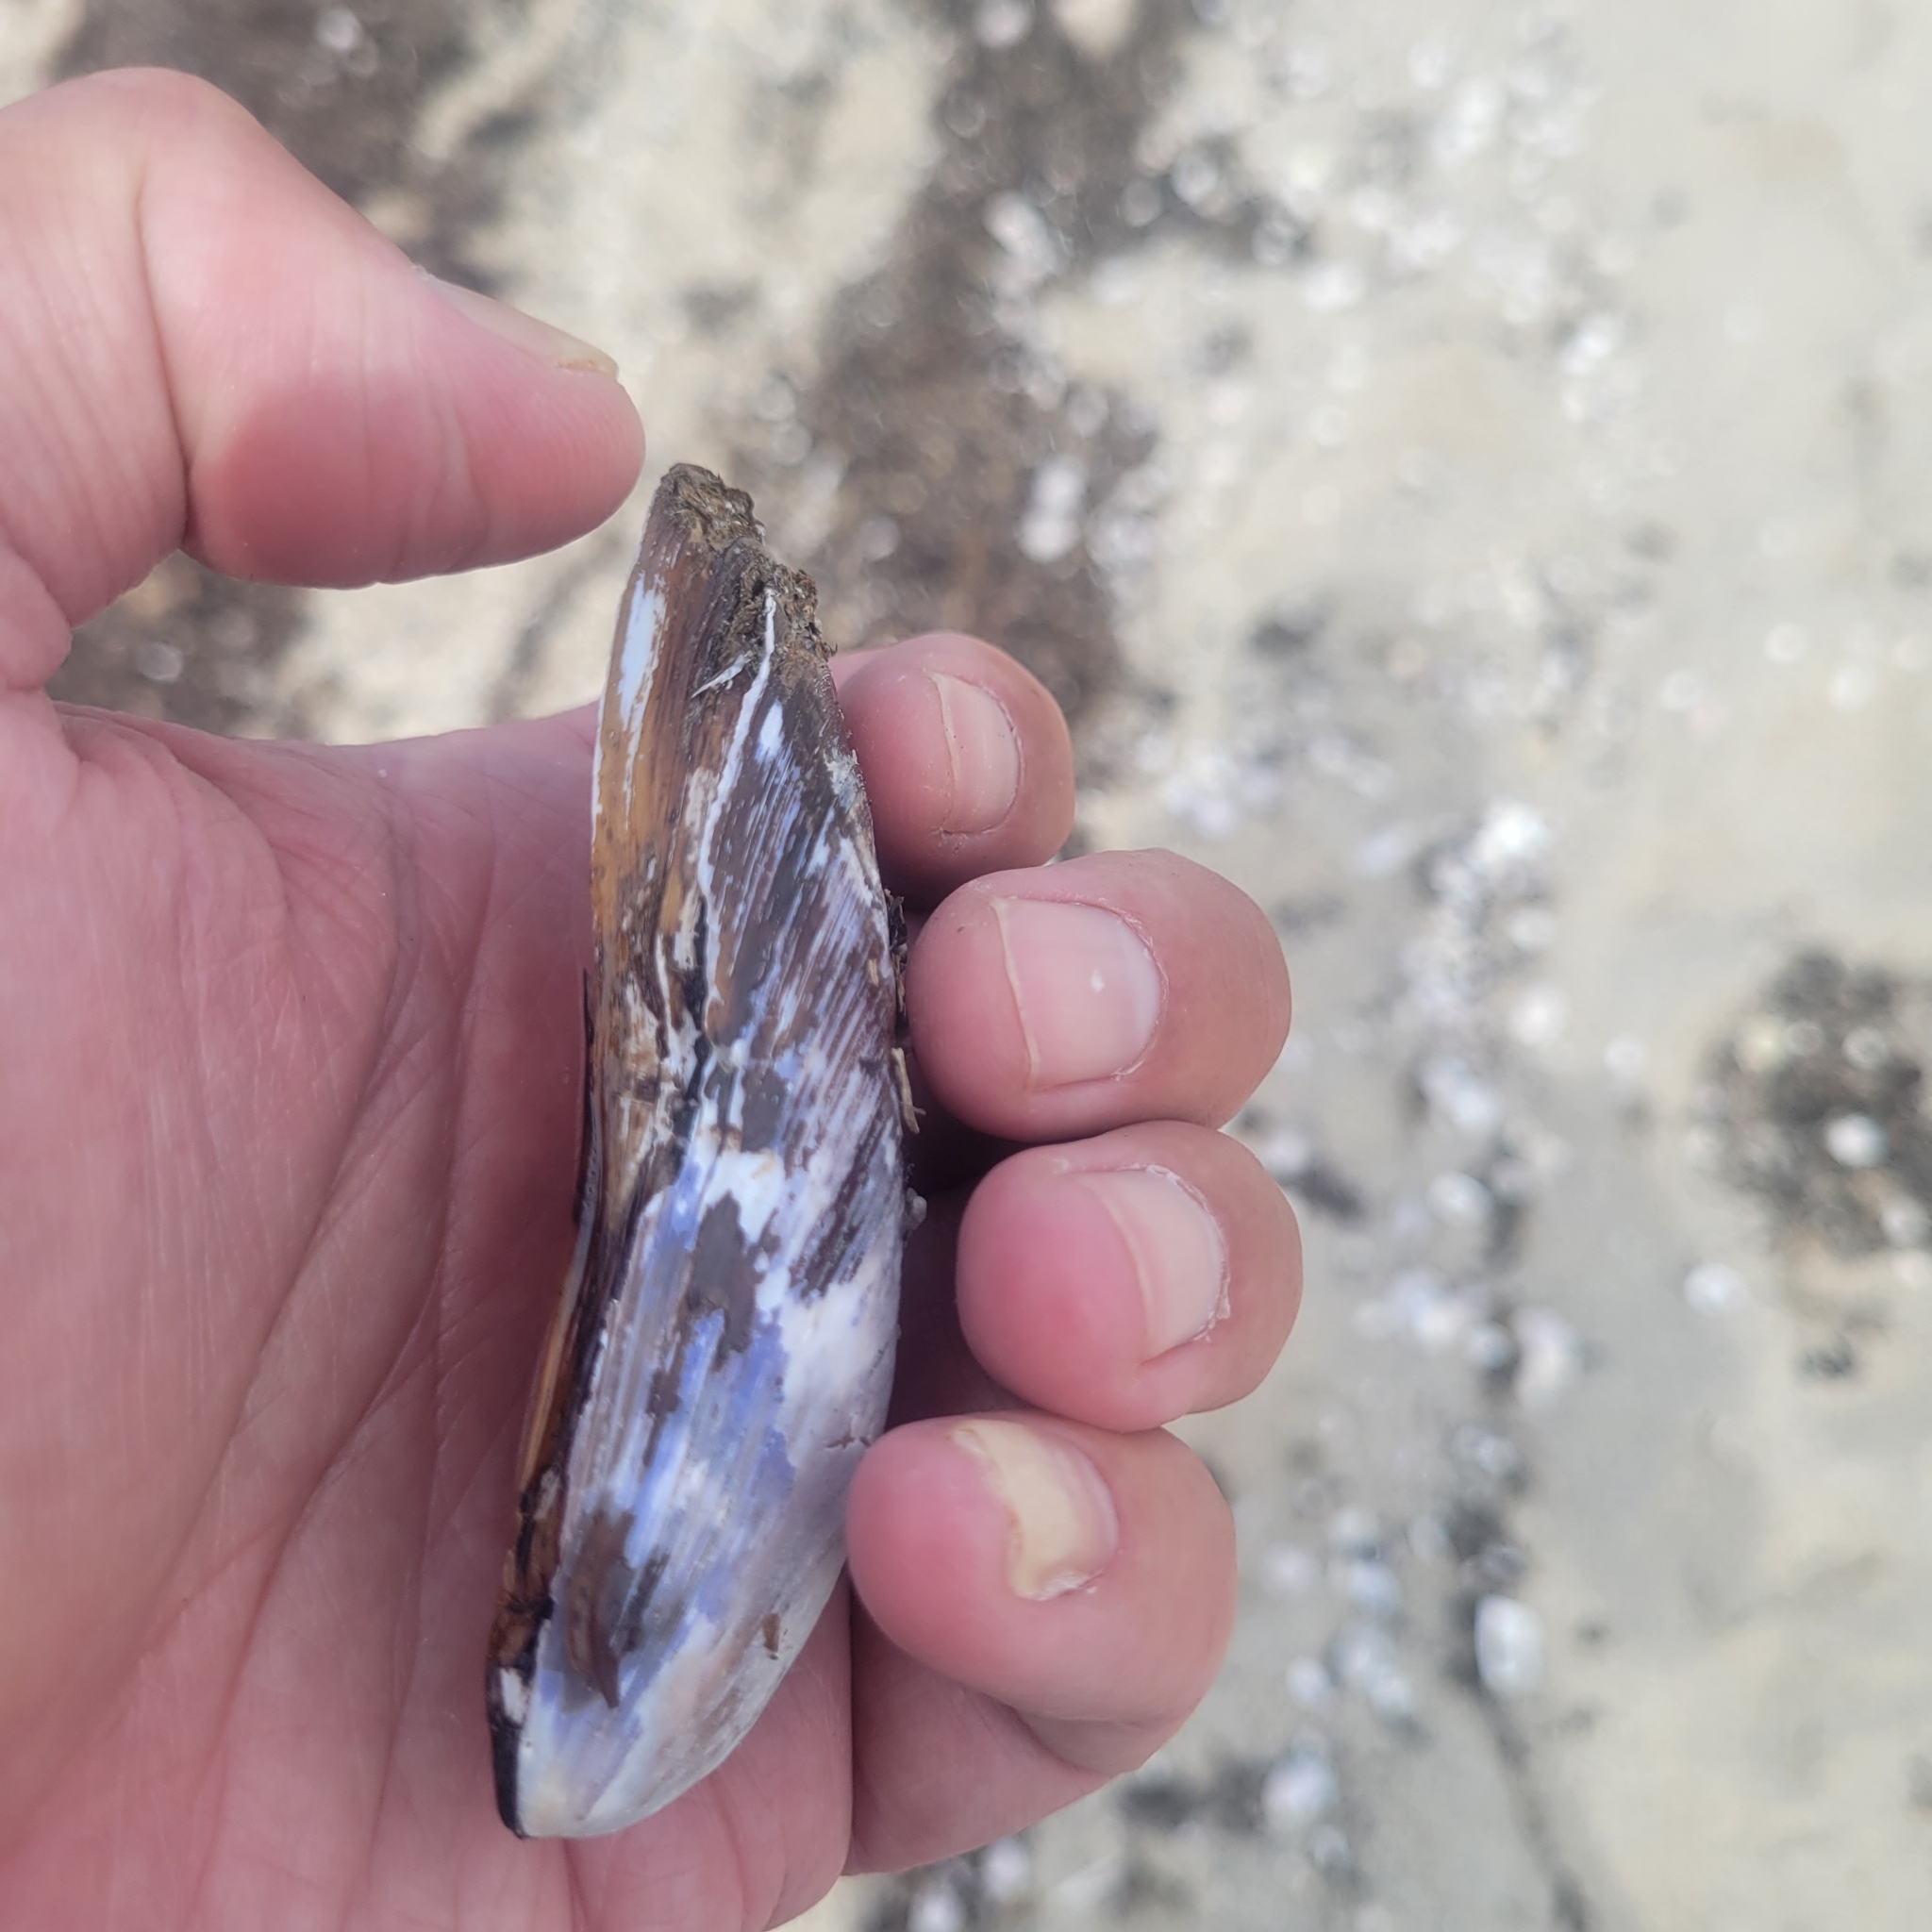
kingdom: Animalia
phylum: Mollusca
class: Bivalvia
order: Mytilida
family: Mytilidae
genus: Modiolus
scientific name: Modiolus modiolus
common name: Horse-mussel
